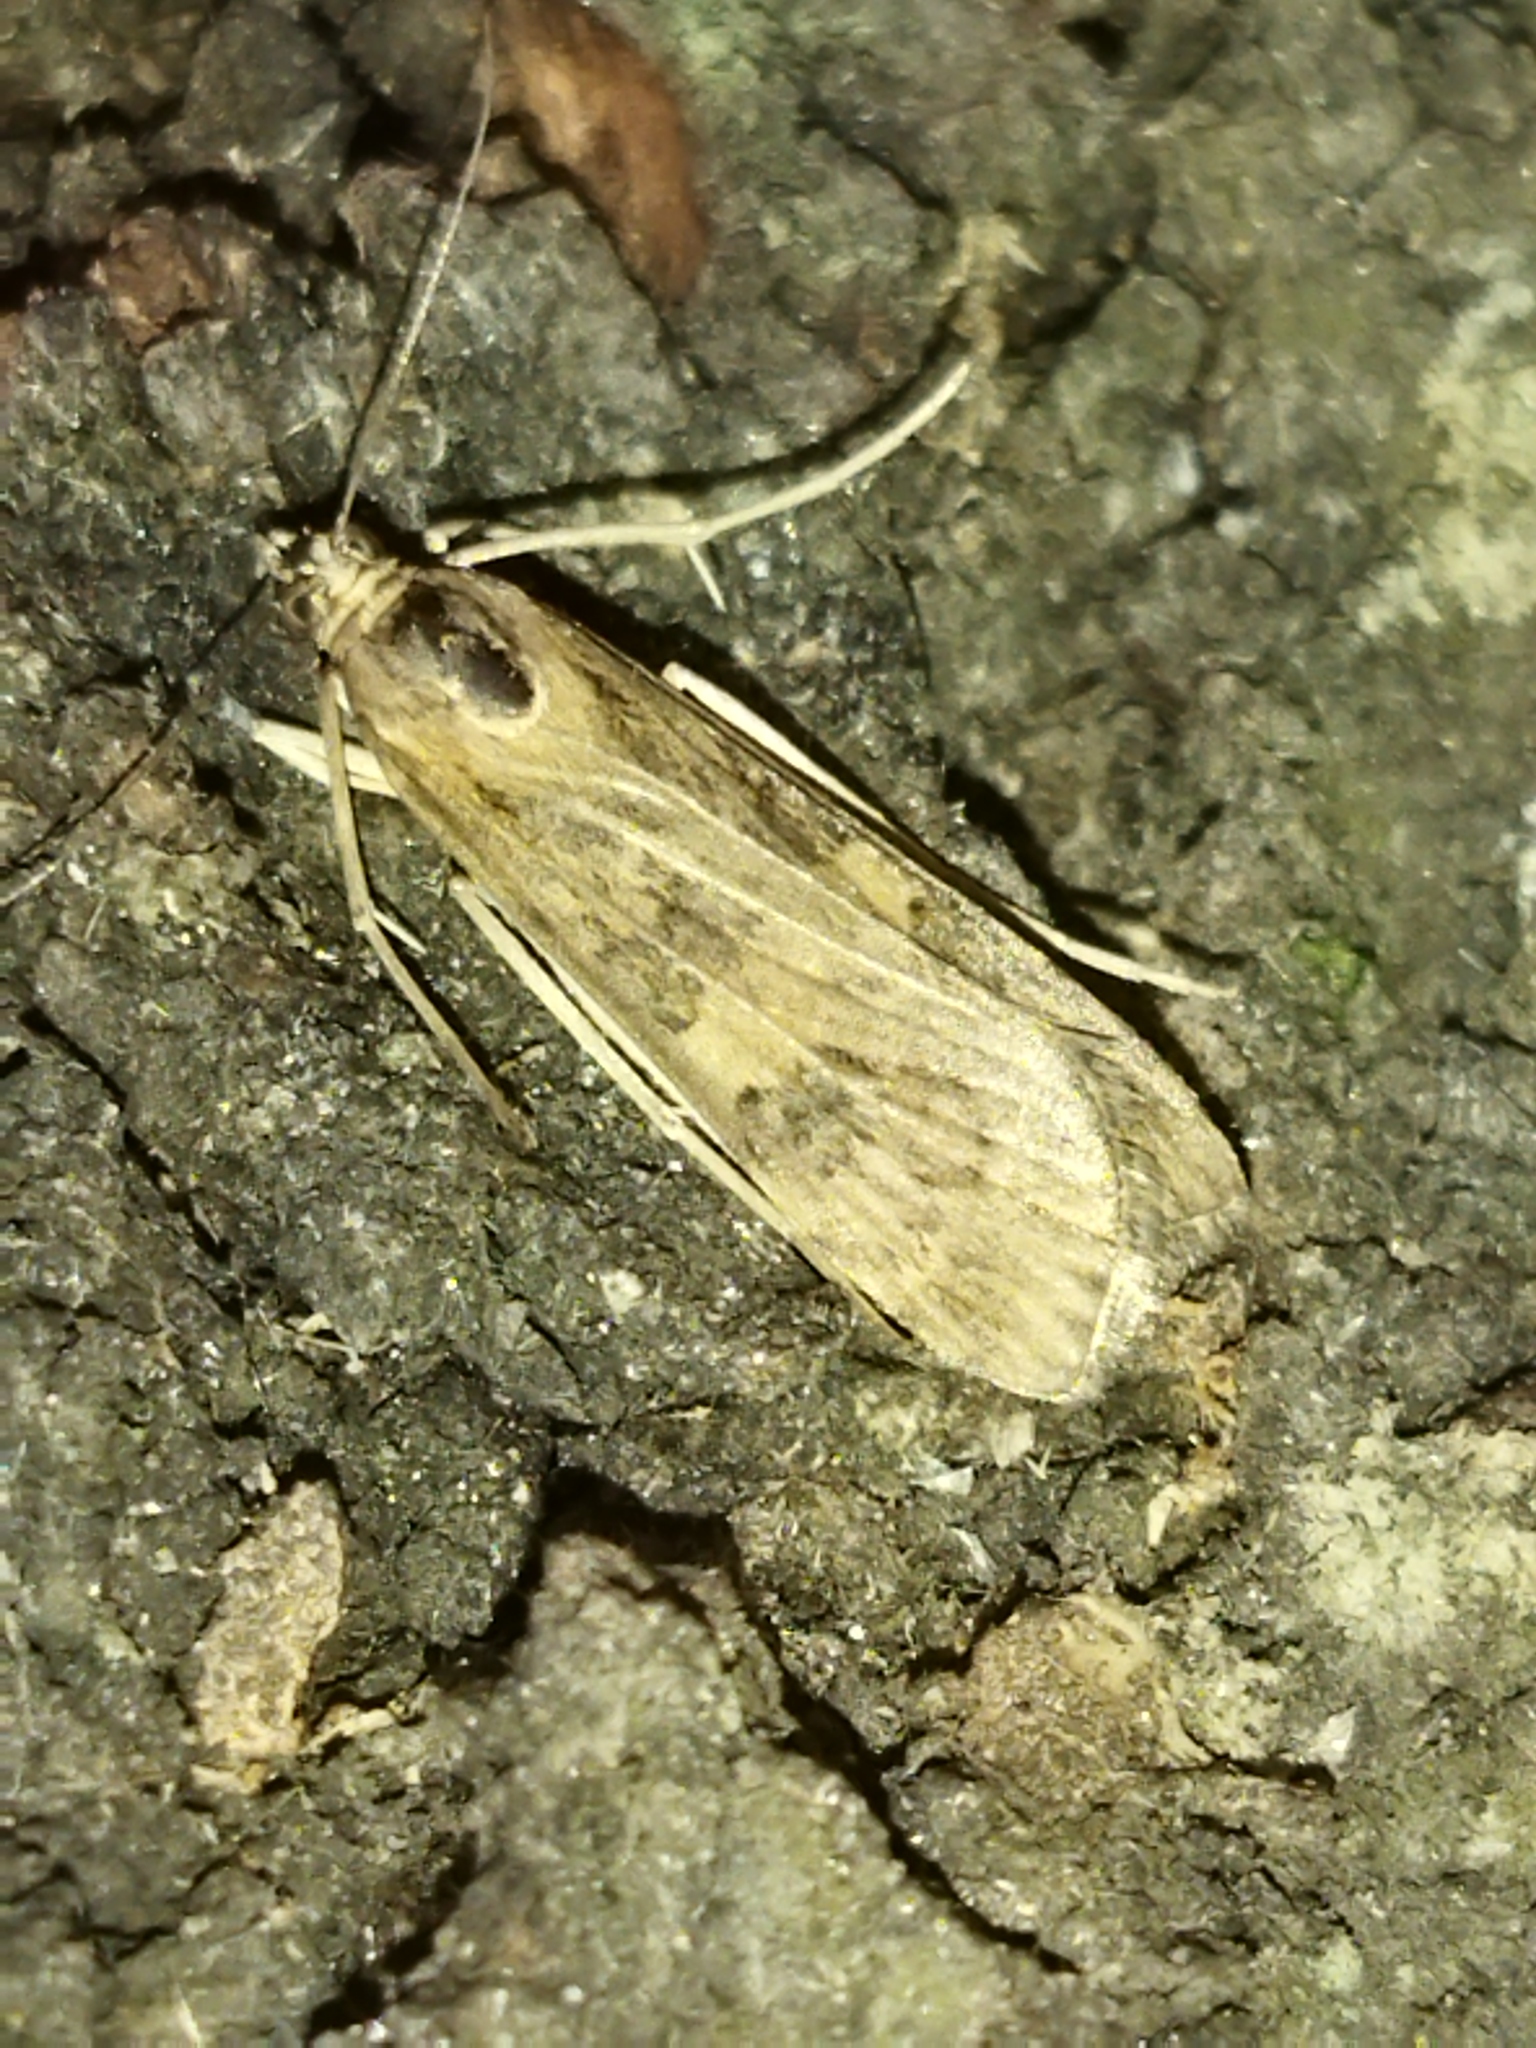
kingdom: Animalia
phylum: Arthropoda
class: Insecta
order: Lepidoptera
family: Crambidae
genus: Nomophila
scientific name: Nomophila noctuella
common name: Rush veneer
